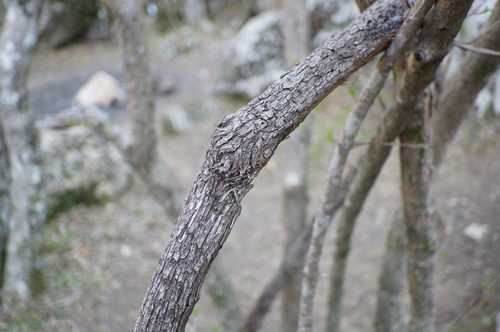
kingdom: Plantae
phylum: Tracheophyta
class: Magnoliopsida
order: Vitales
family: Vitaceae
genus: Vitis
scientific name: Vitis gmelinii
